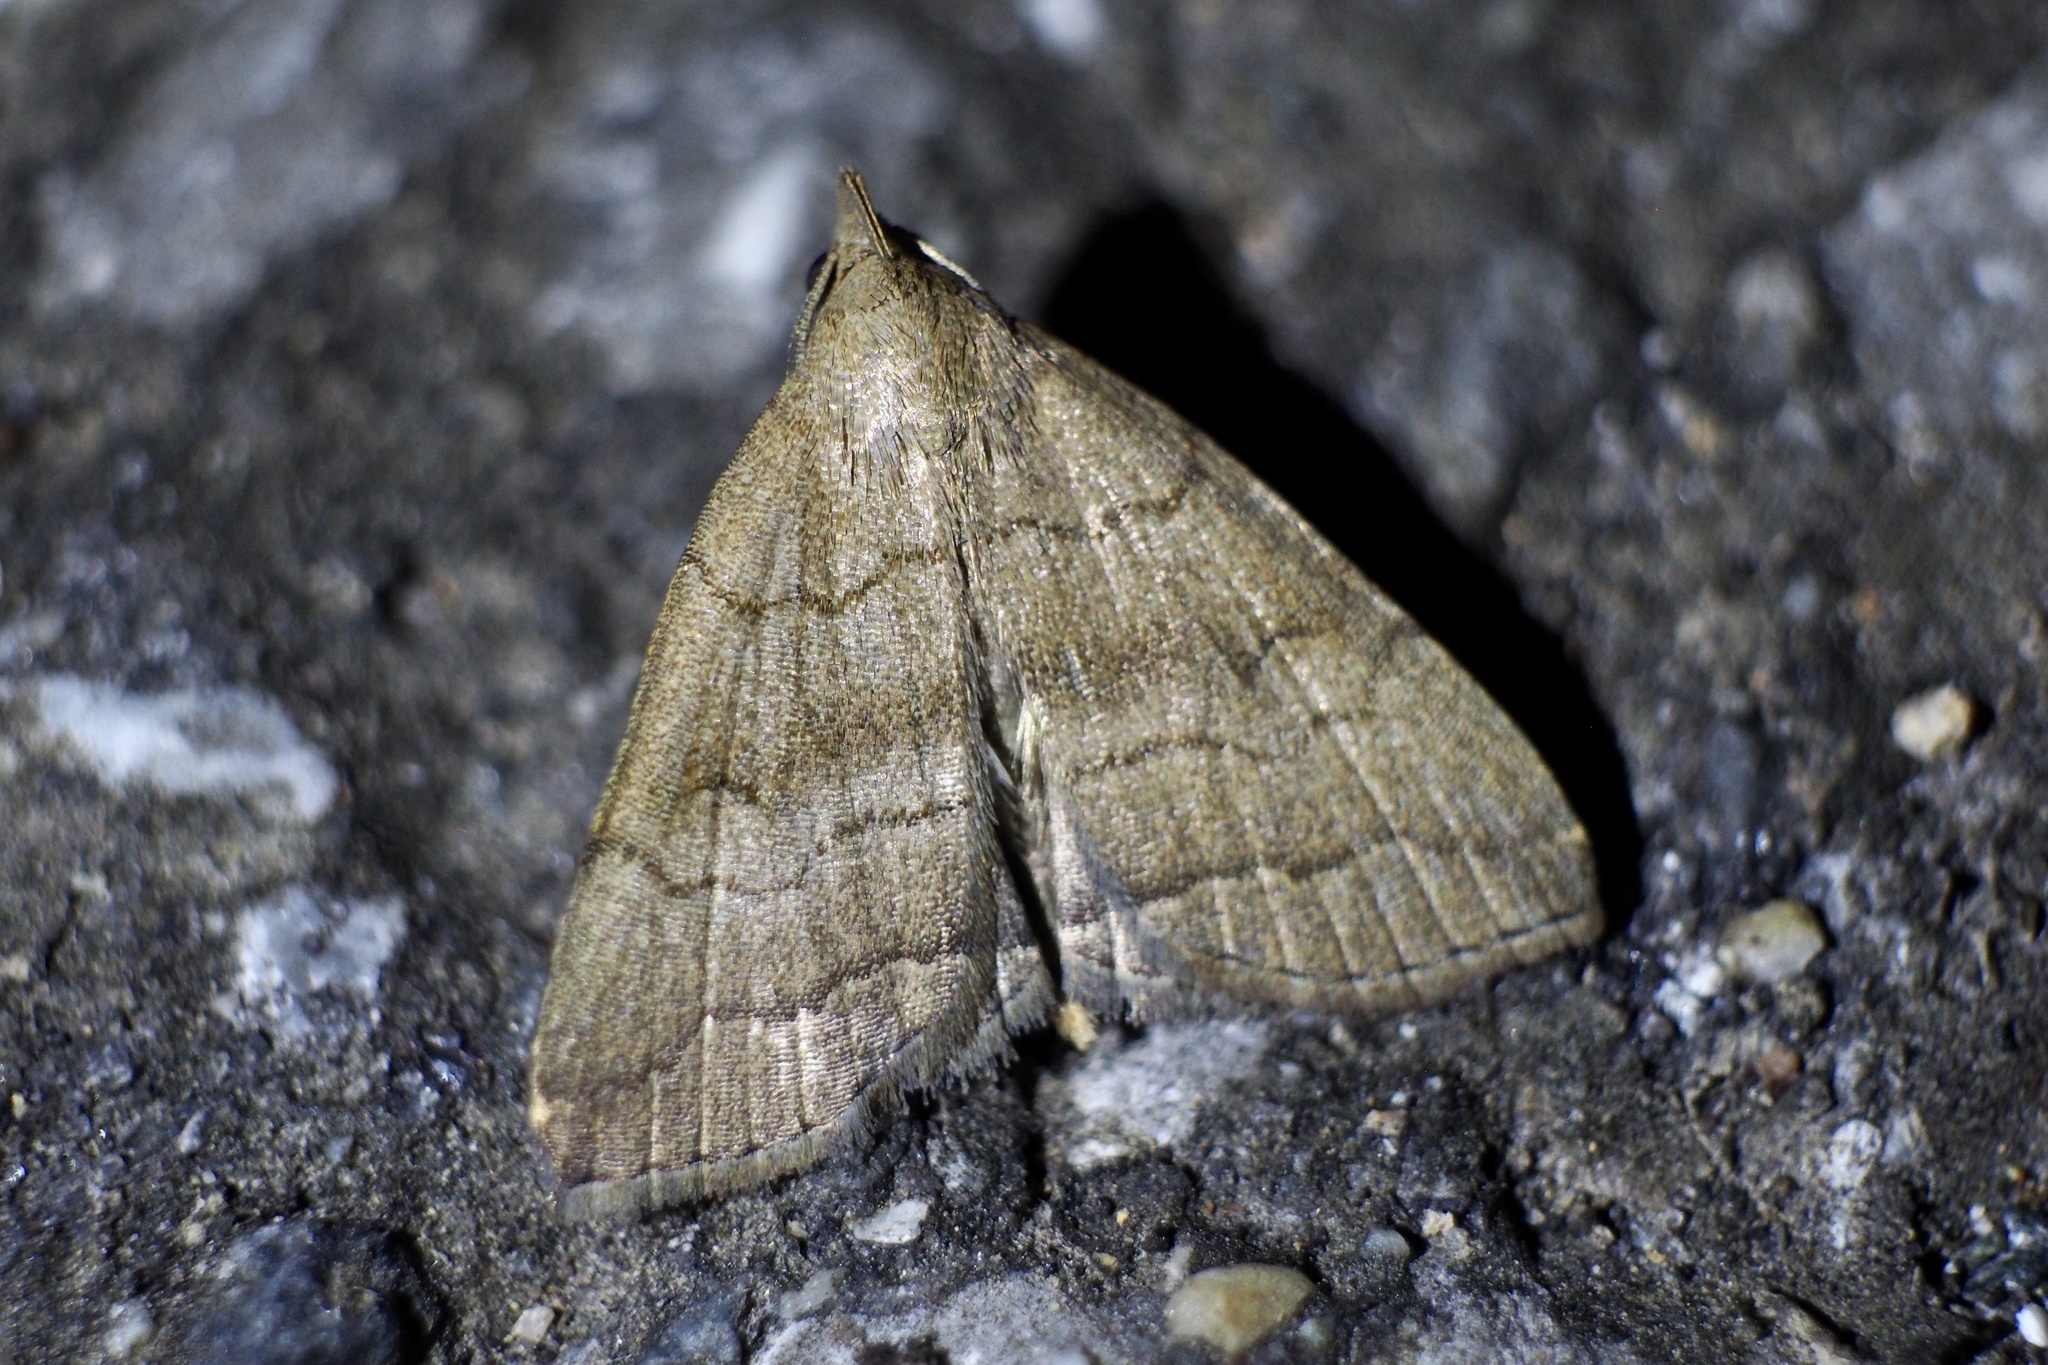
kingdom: Animalia
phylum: Arthropoda
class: Insecta
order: Lepidoptera
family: Erebidae
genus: Herminia
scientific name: Herminia innocens
